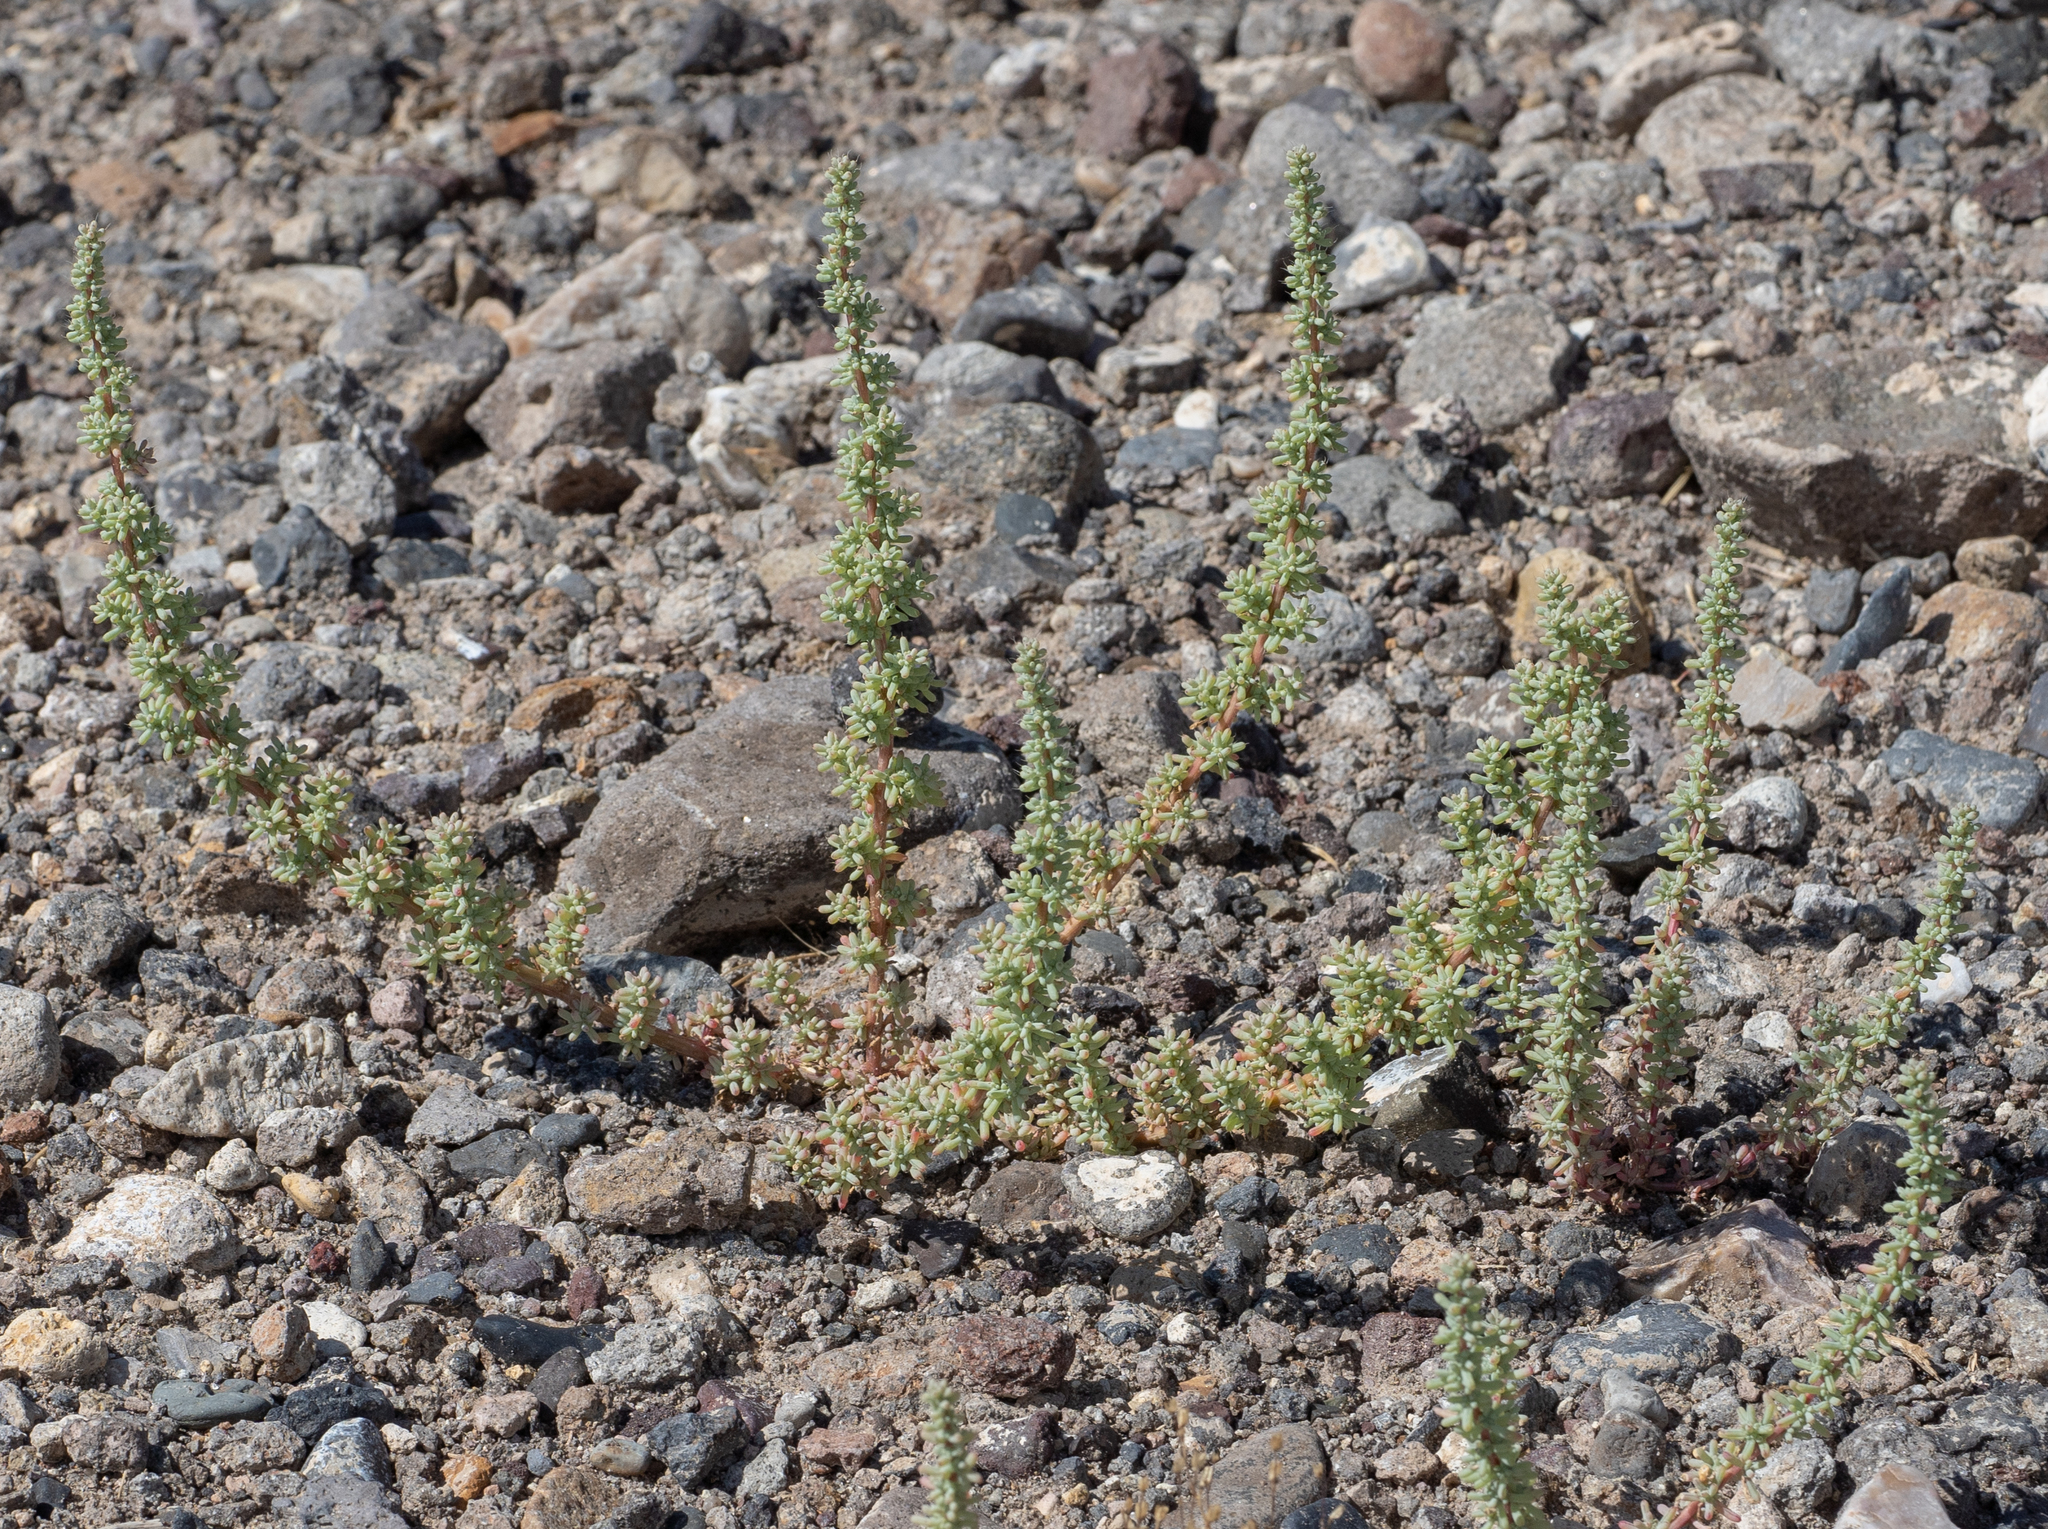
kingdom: Plantae
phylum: Tracheophyta
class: Magnoliopsida
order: Caryophyllales
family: Amaranthaceae
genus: Halogeton
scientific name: Halogeton glomeratus
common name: Saltlover
